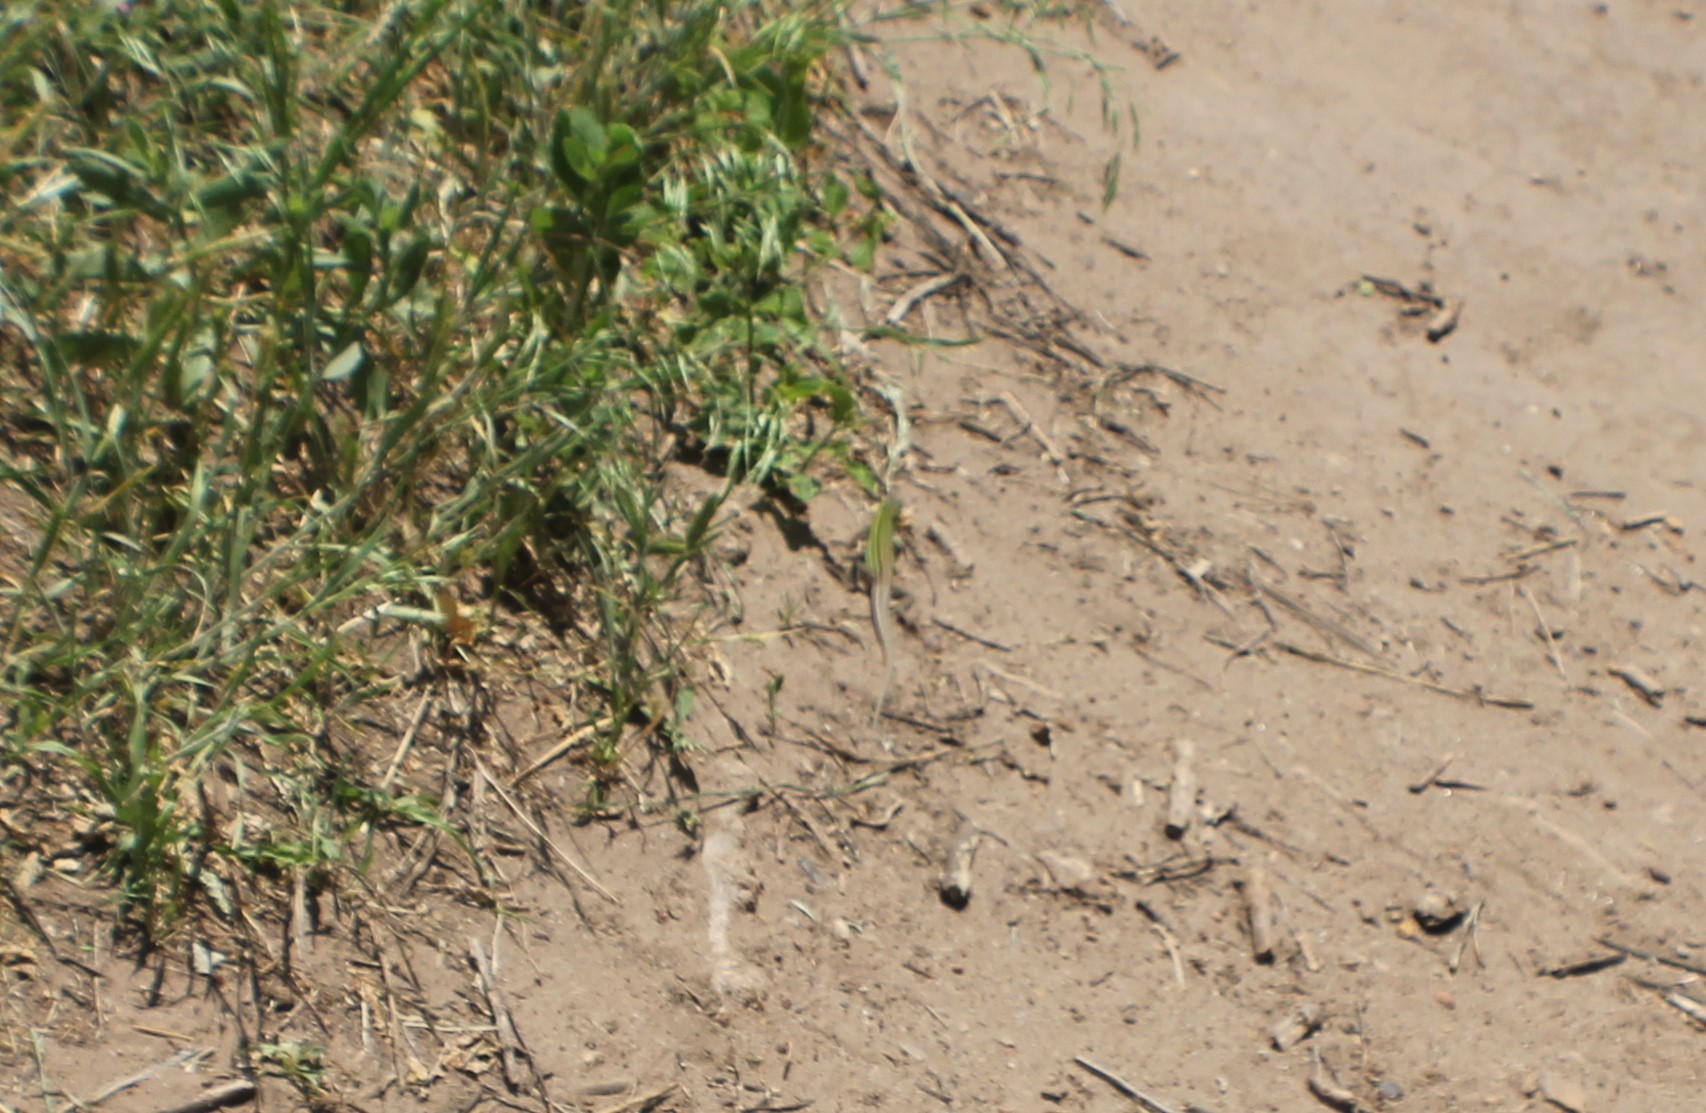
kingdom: Animalia
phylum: Chordata
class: Squamata
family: Teiidae
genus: Aspidoscelis
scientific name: Aspidoscelis sexlineatus
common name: Six-lined racerunner
